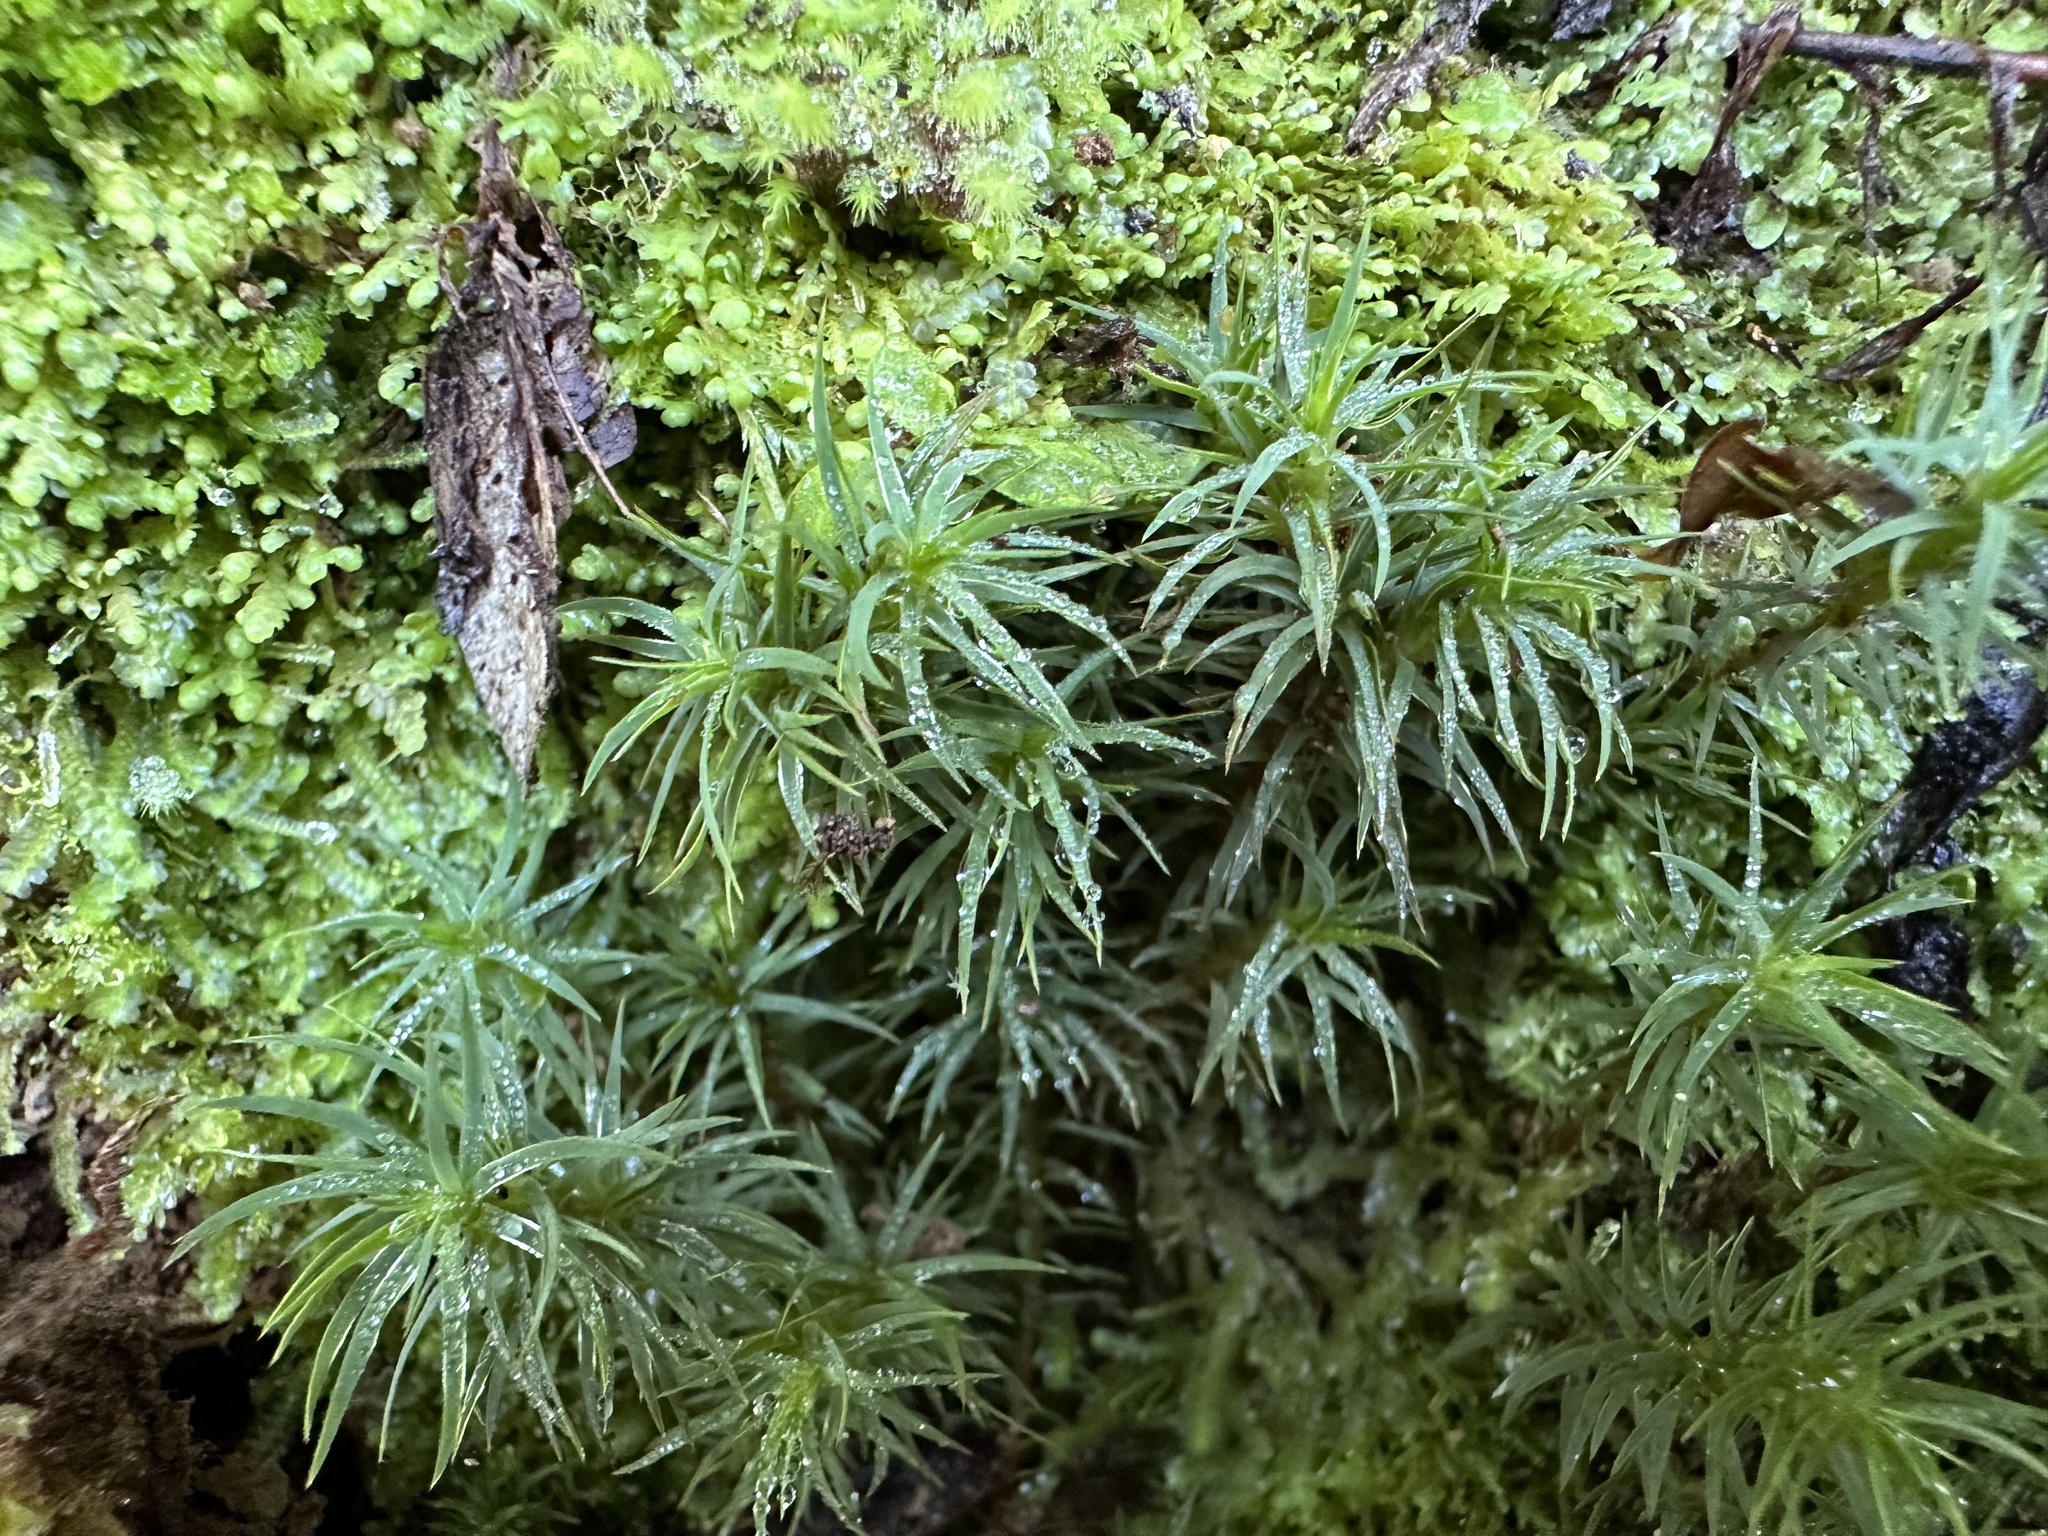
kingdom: Plantae
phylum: Bryophyta
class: Polytrichopsida
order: Polytrichales
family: Polytrichaceae
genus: Polytrichadelphus
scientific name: Polytrichadelphus magellanicus
